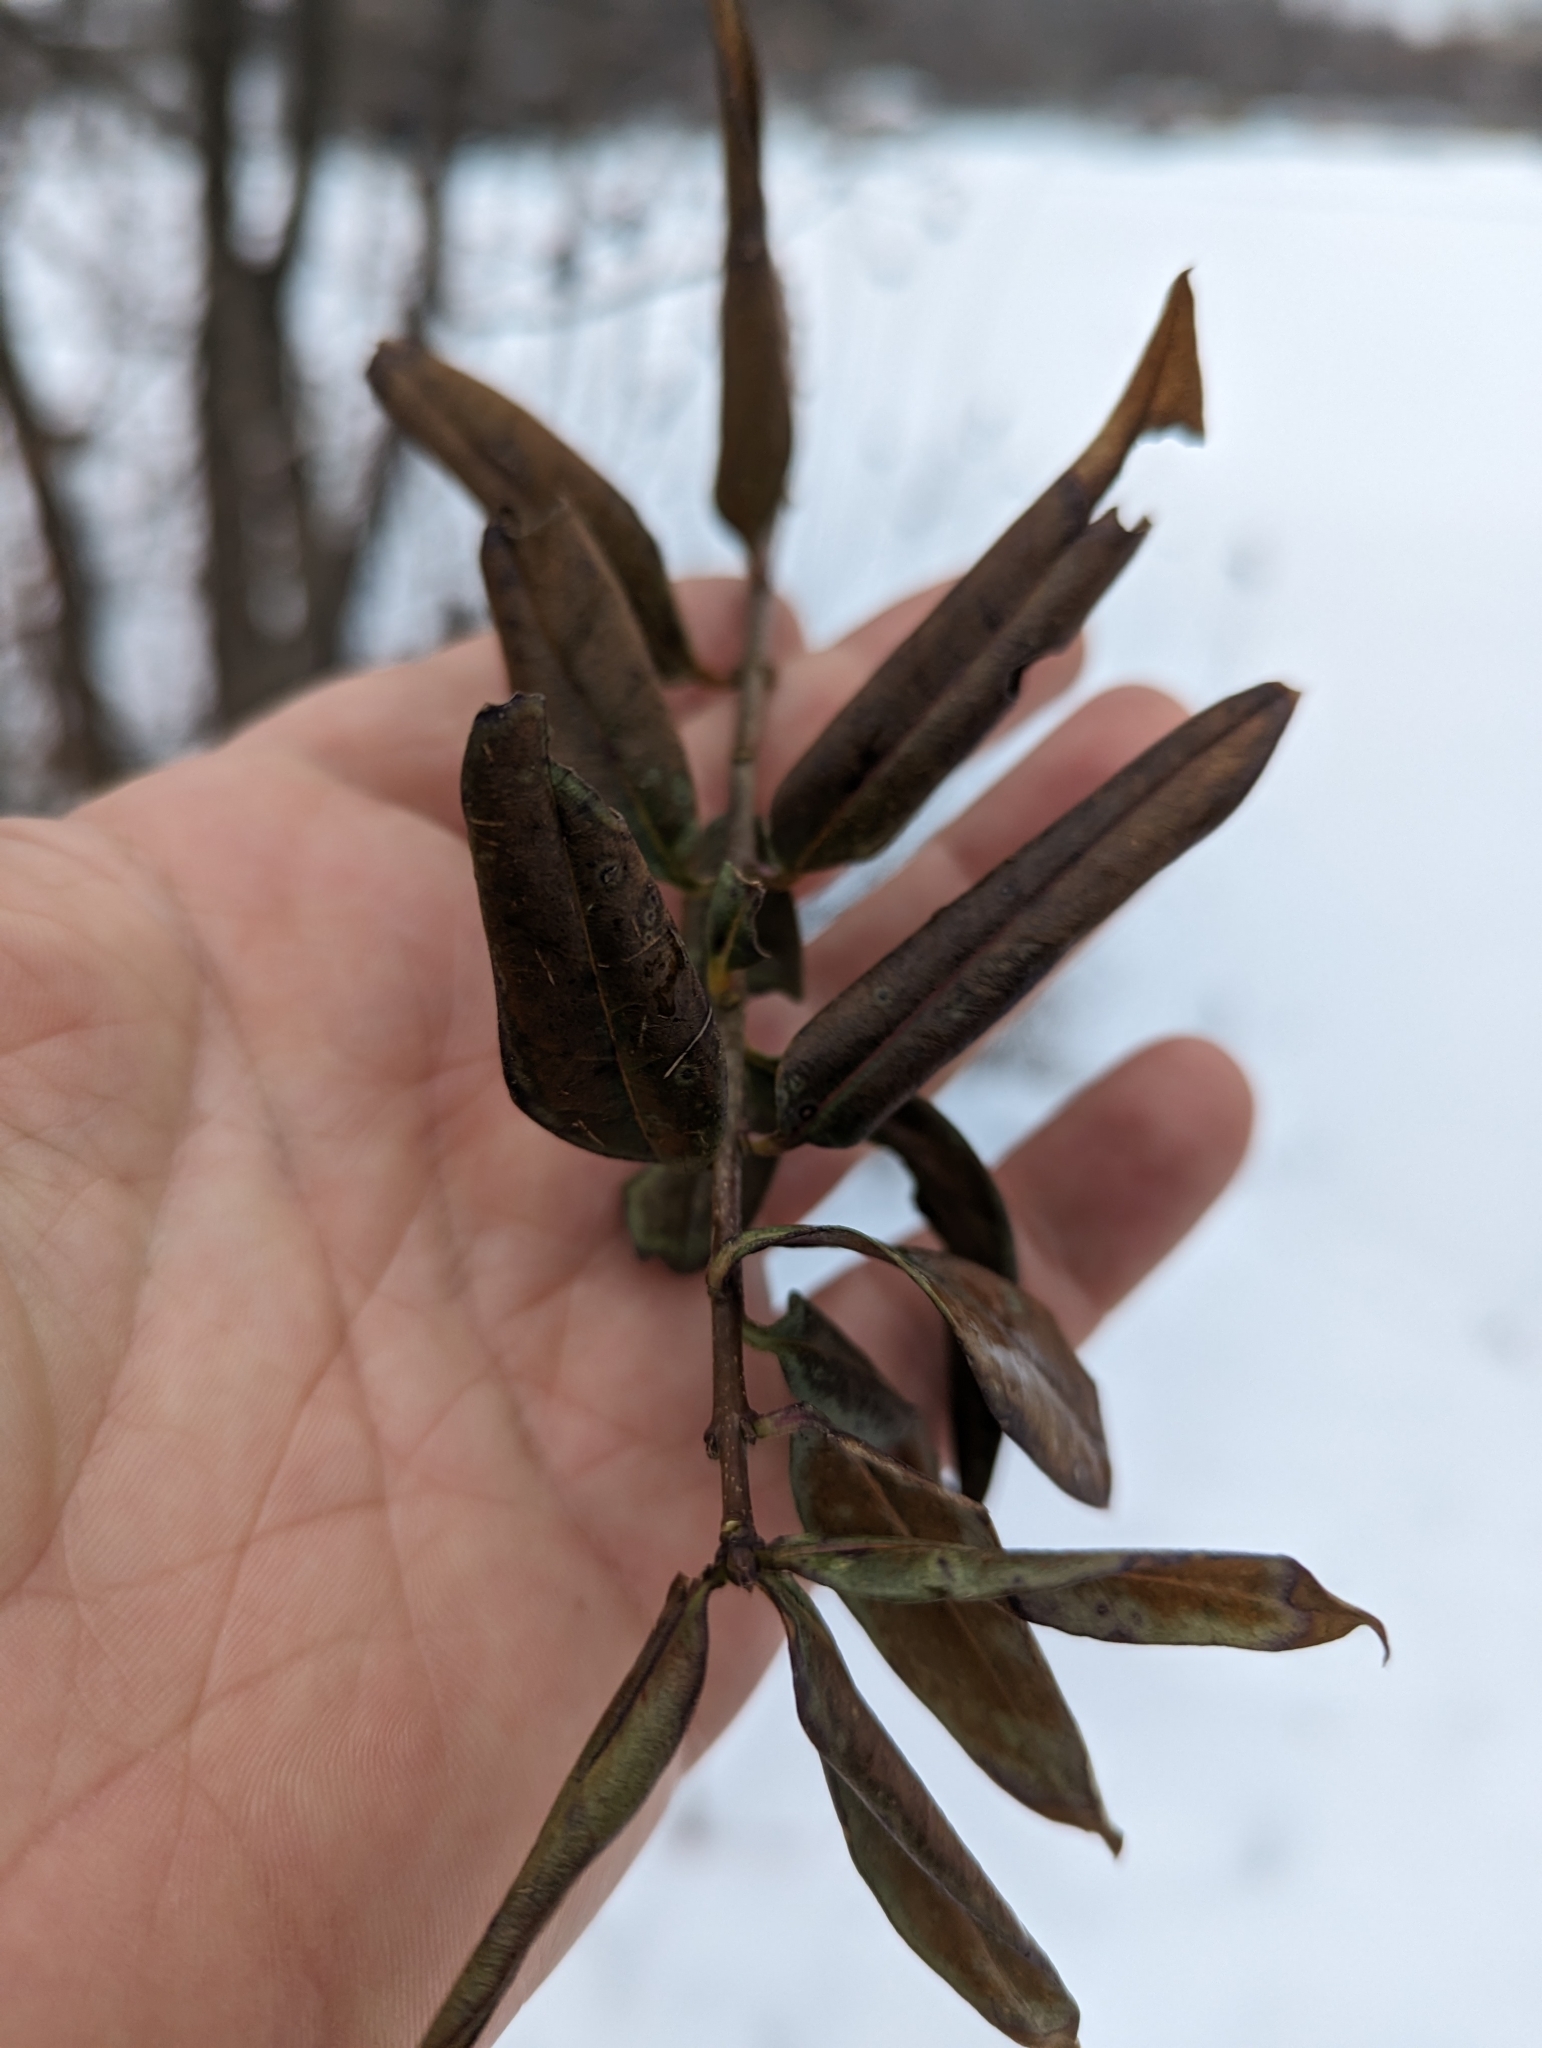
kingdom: Plantae
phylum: Tracheophyta
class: Magnoliopsida
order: Lamiales
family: Oleaceae
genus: Ligustrum
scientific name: Ligustrum vulgare
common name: Wild privet
